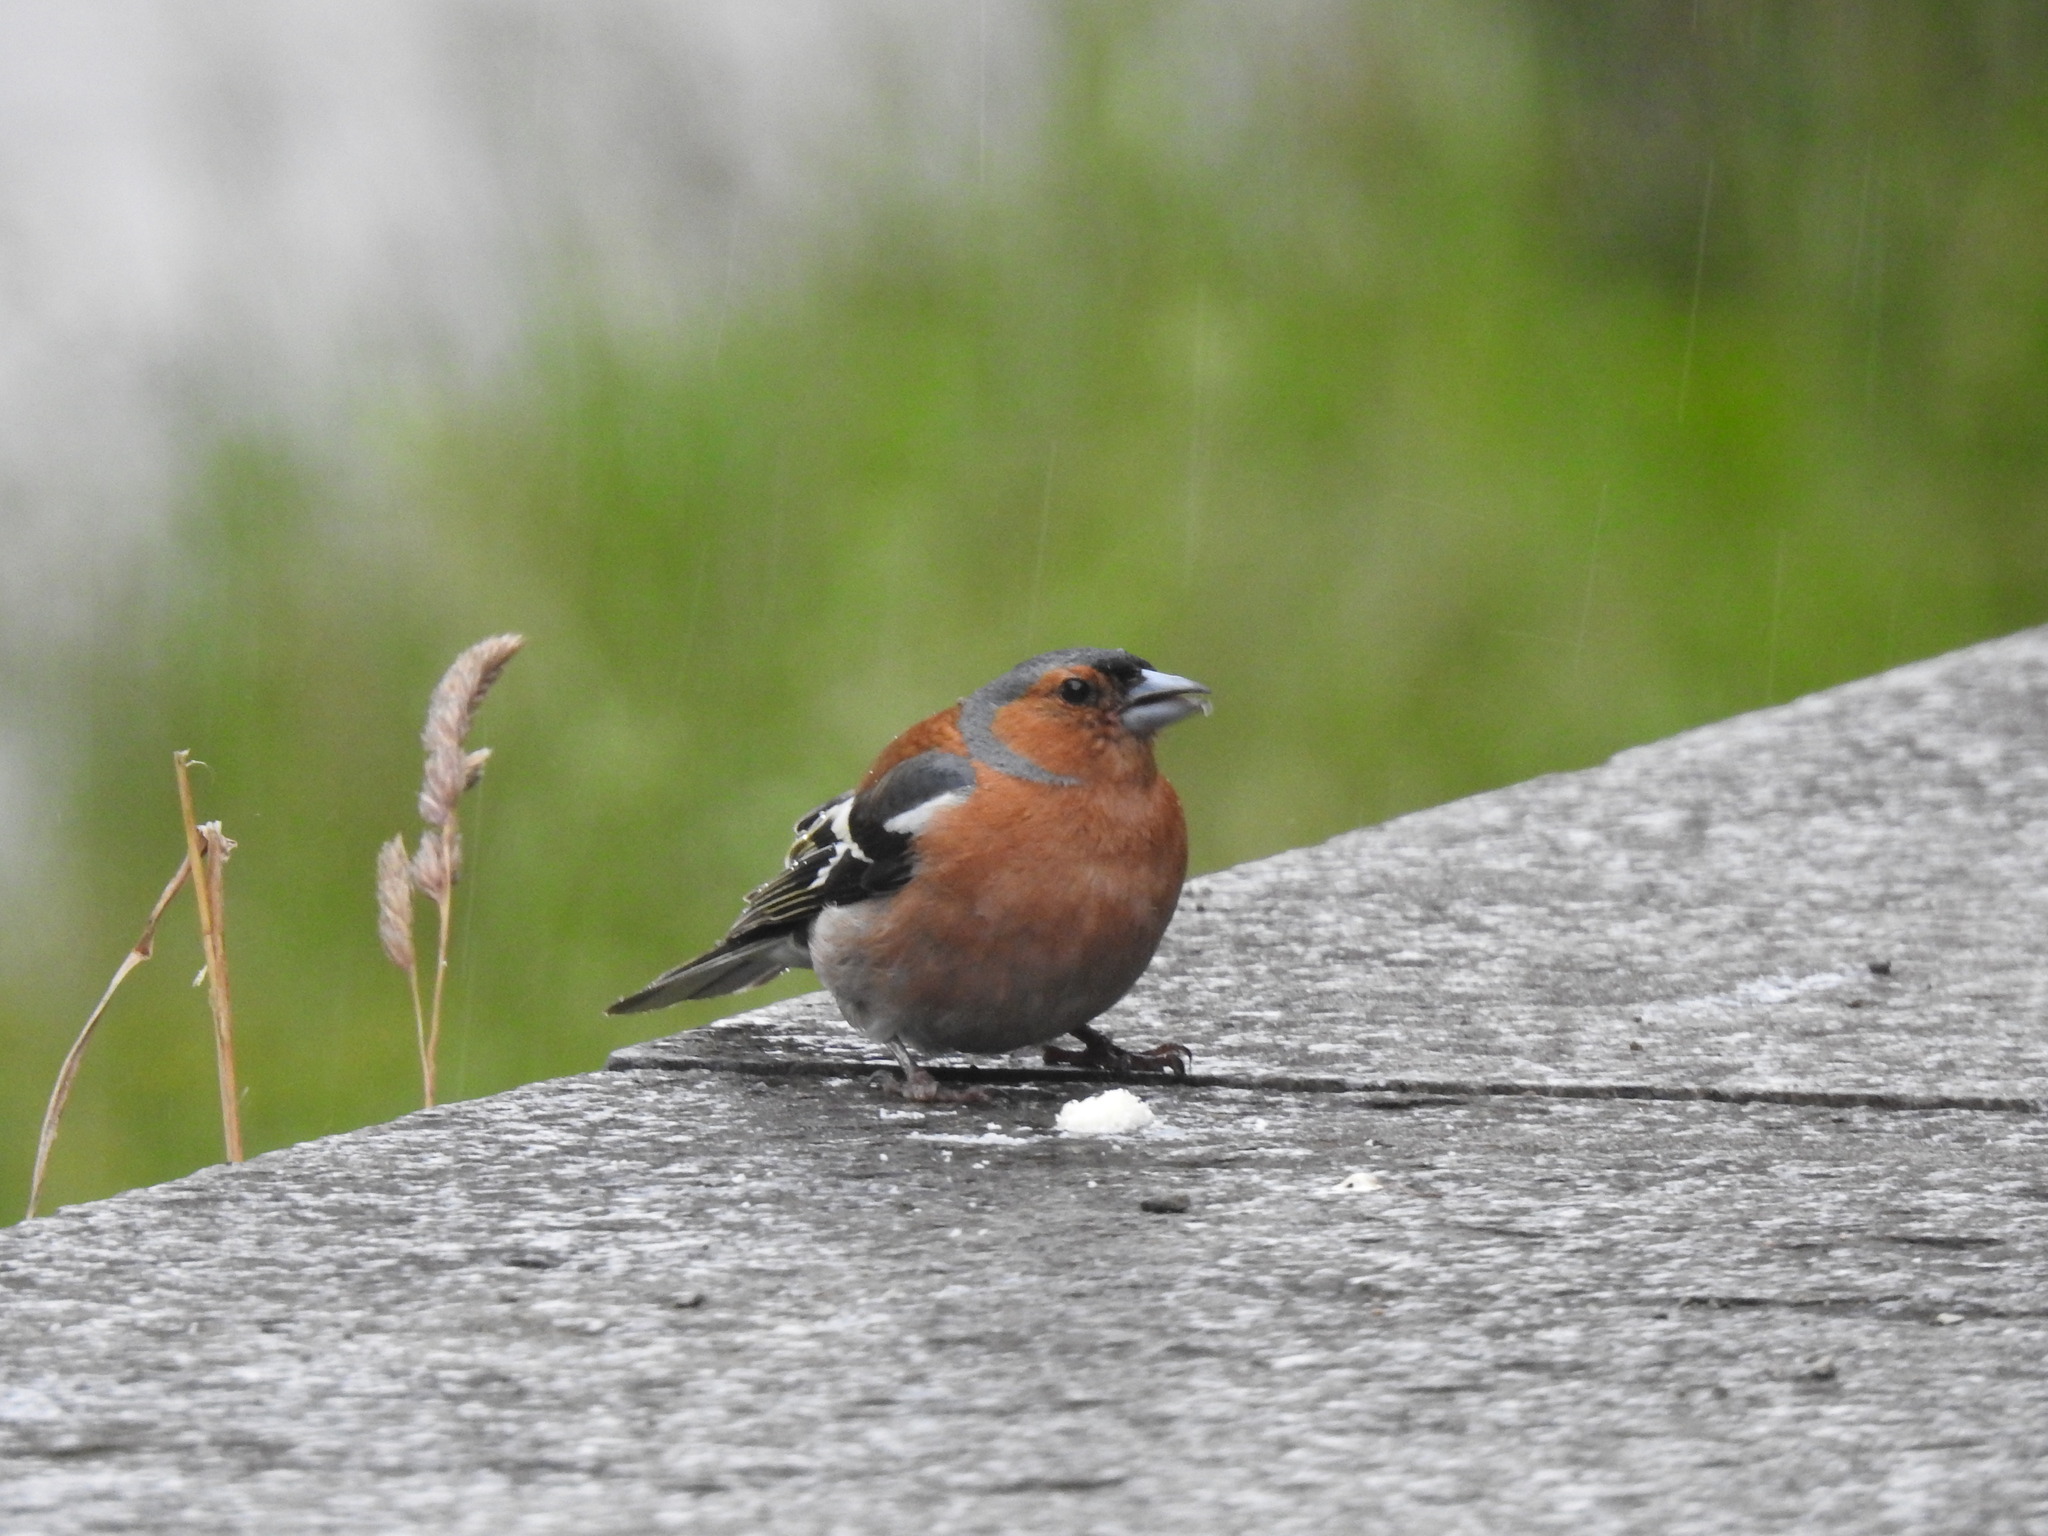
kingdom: Animalia
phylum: Chordata
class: Aves
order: Passeriformes
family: Fringillidae
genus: Fringilla
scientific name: Fringilla coelebs
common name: Common chaffinch
